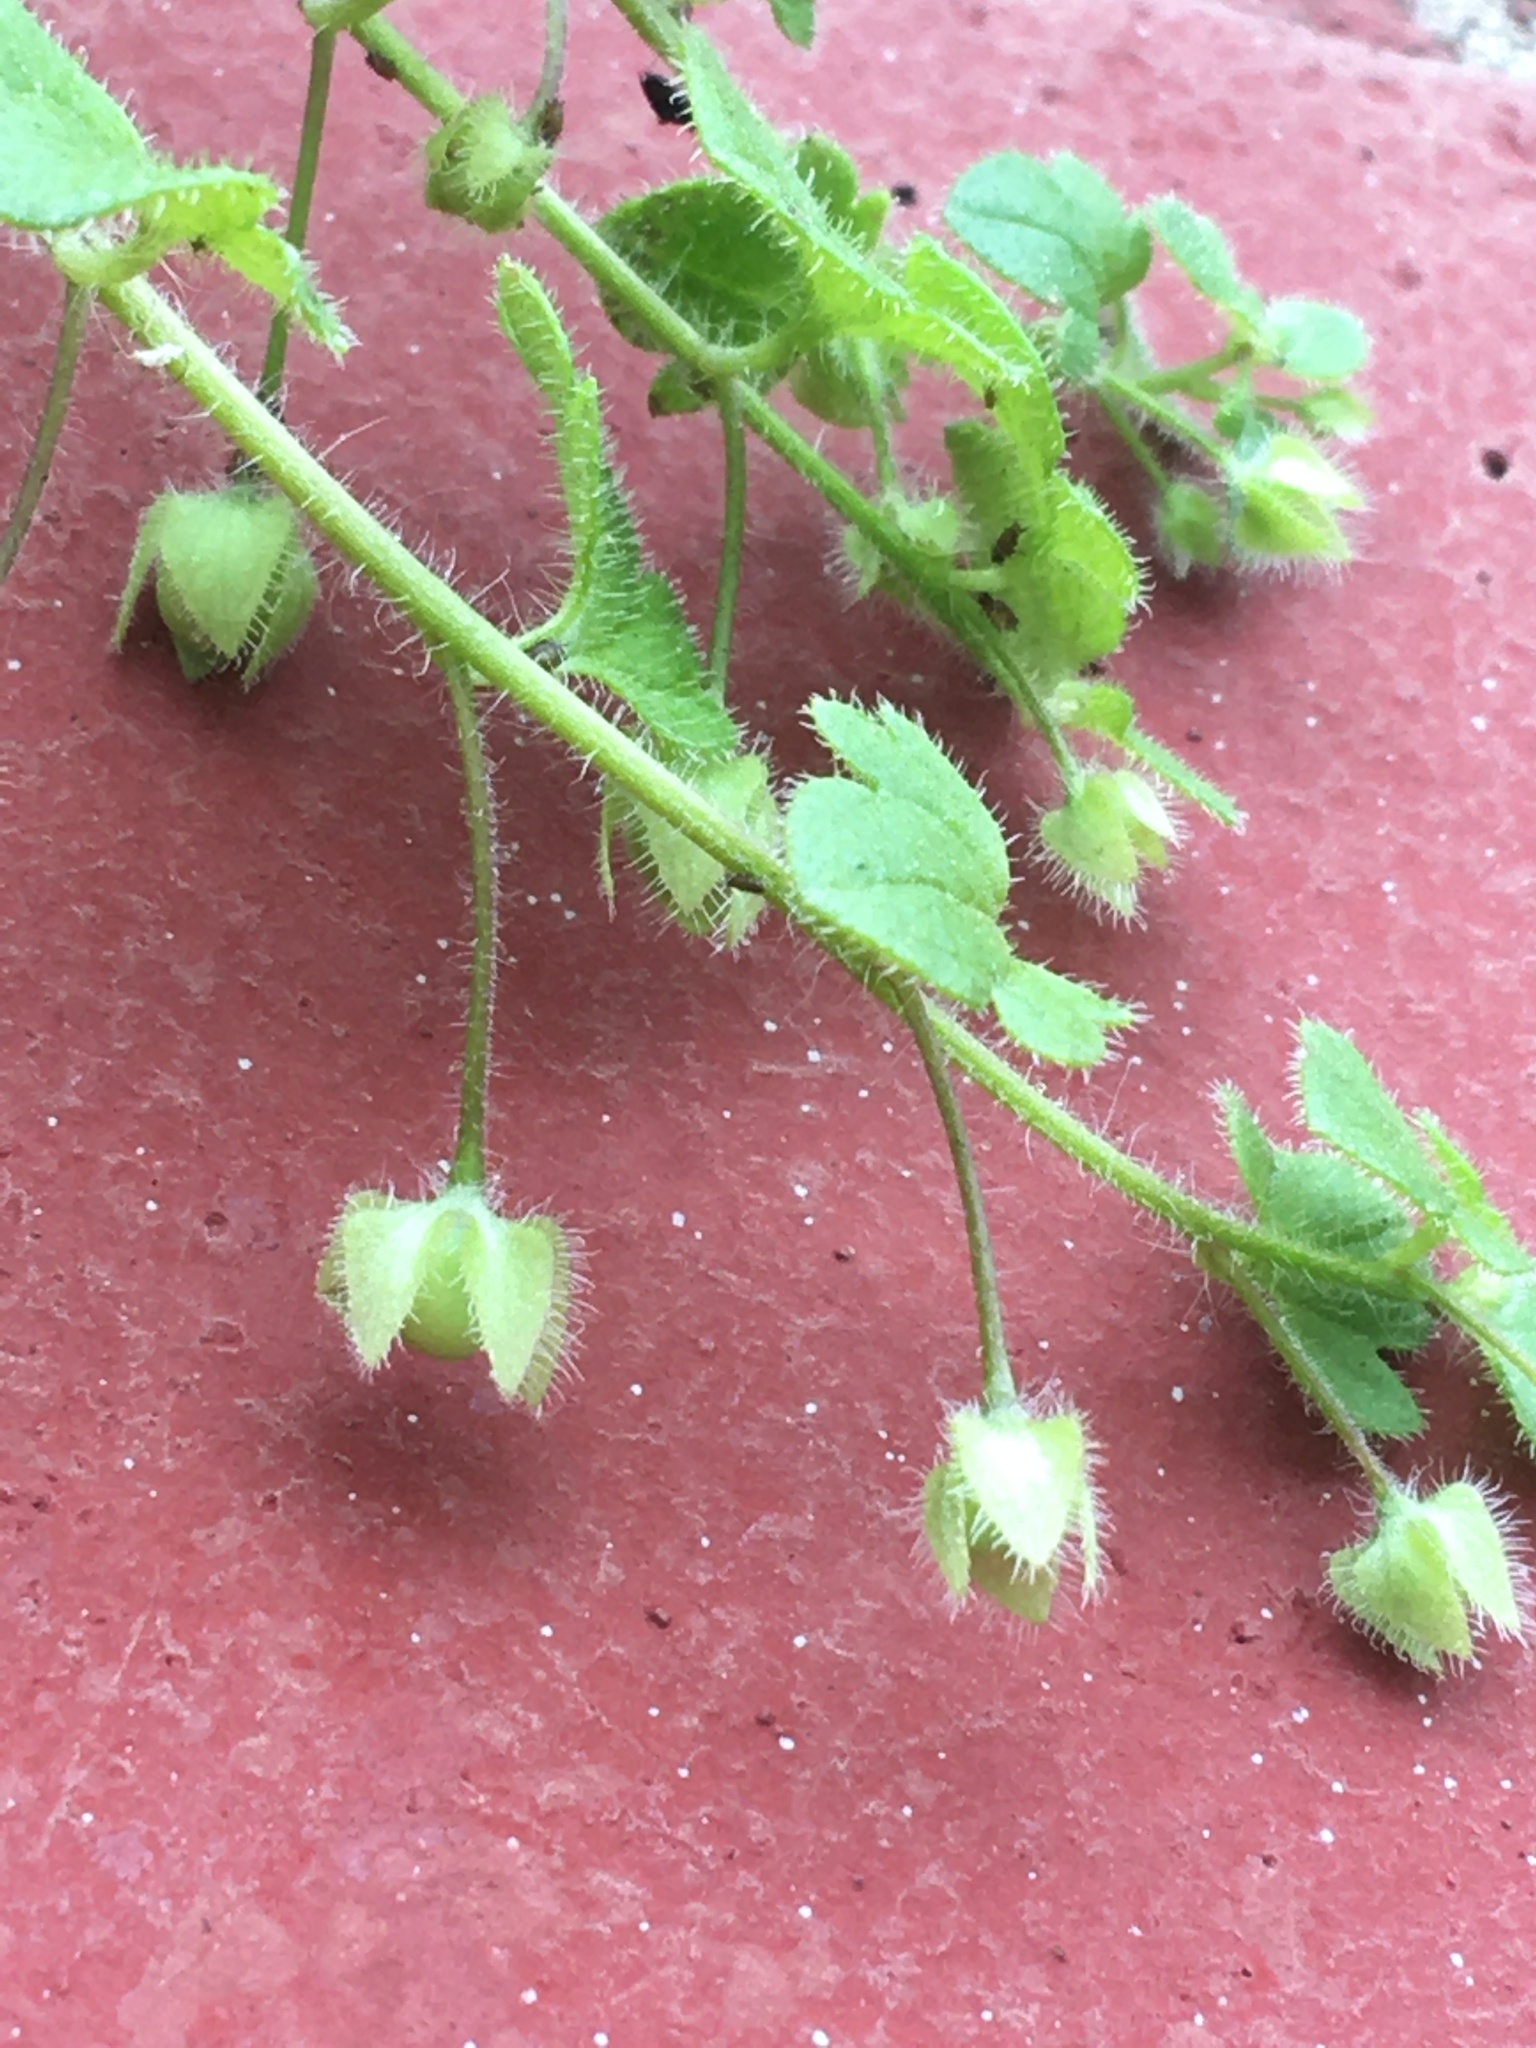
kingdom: Plantae
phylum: Tracheophyta
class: Magnoliopsida
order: Lamiales
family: Plantaginaceae
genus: Veronica
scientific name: Veronica sublobata
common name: False ivy-leaved speedwell
